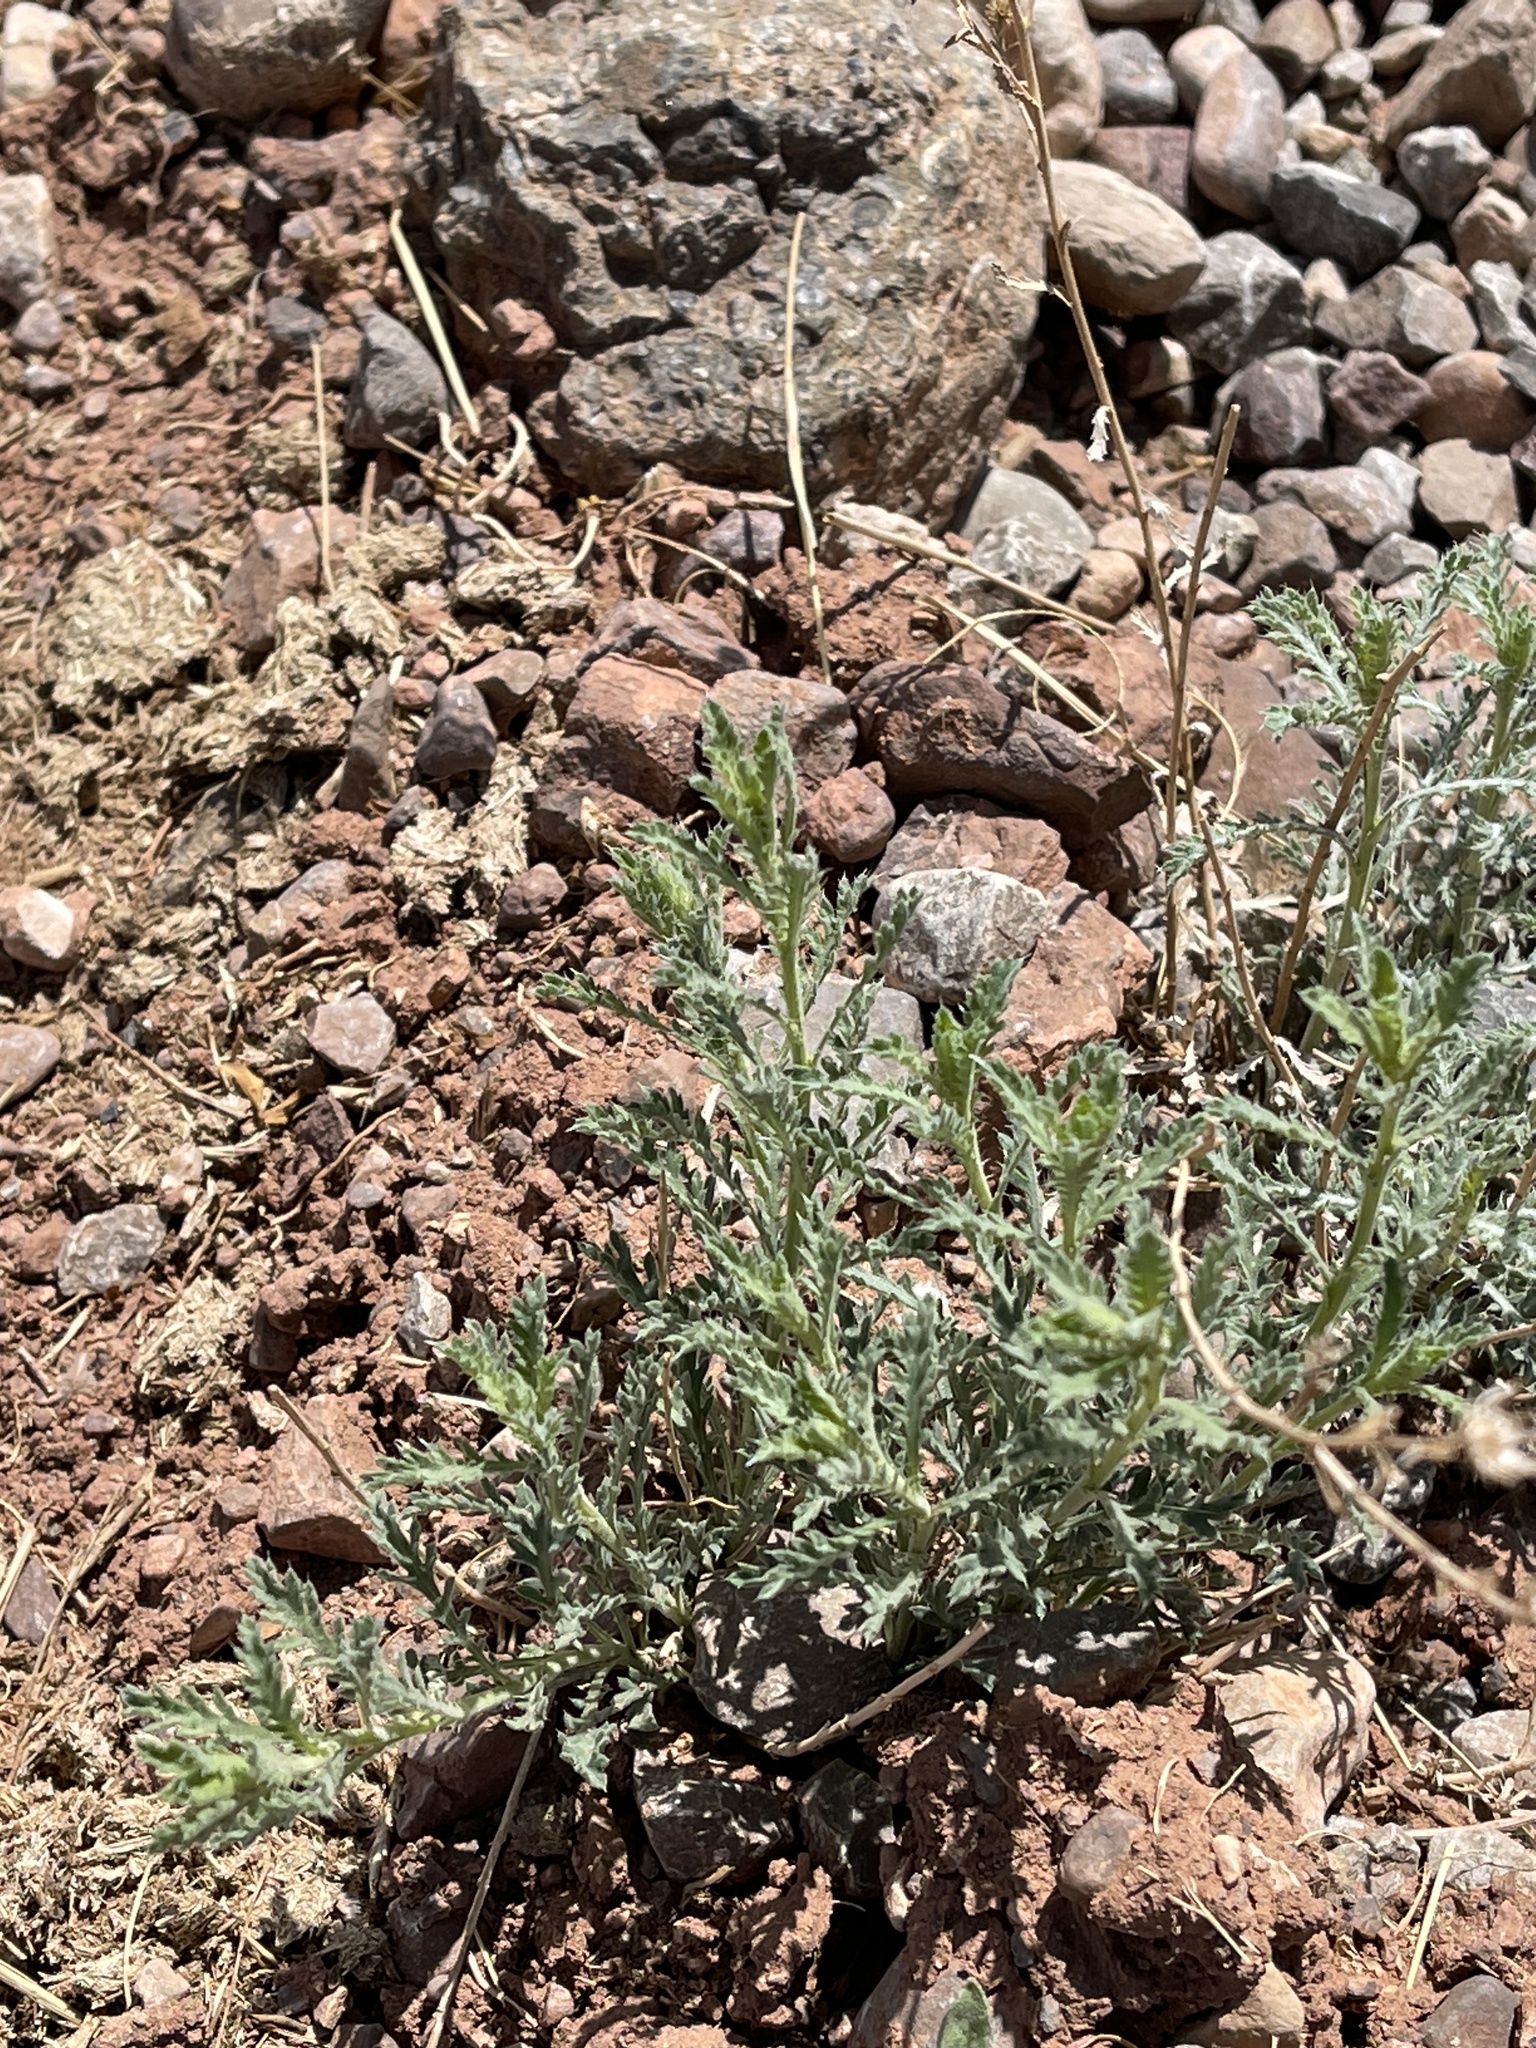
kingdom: Plantae
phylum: Tracheophyta
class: Magnoliopsida
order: Asterales
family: Asteraceae
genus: Xanthisma
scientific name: Xanthisma spinulosum
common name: Spiny goldenweed
